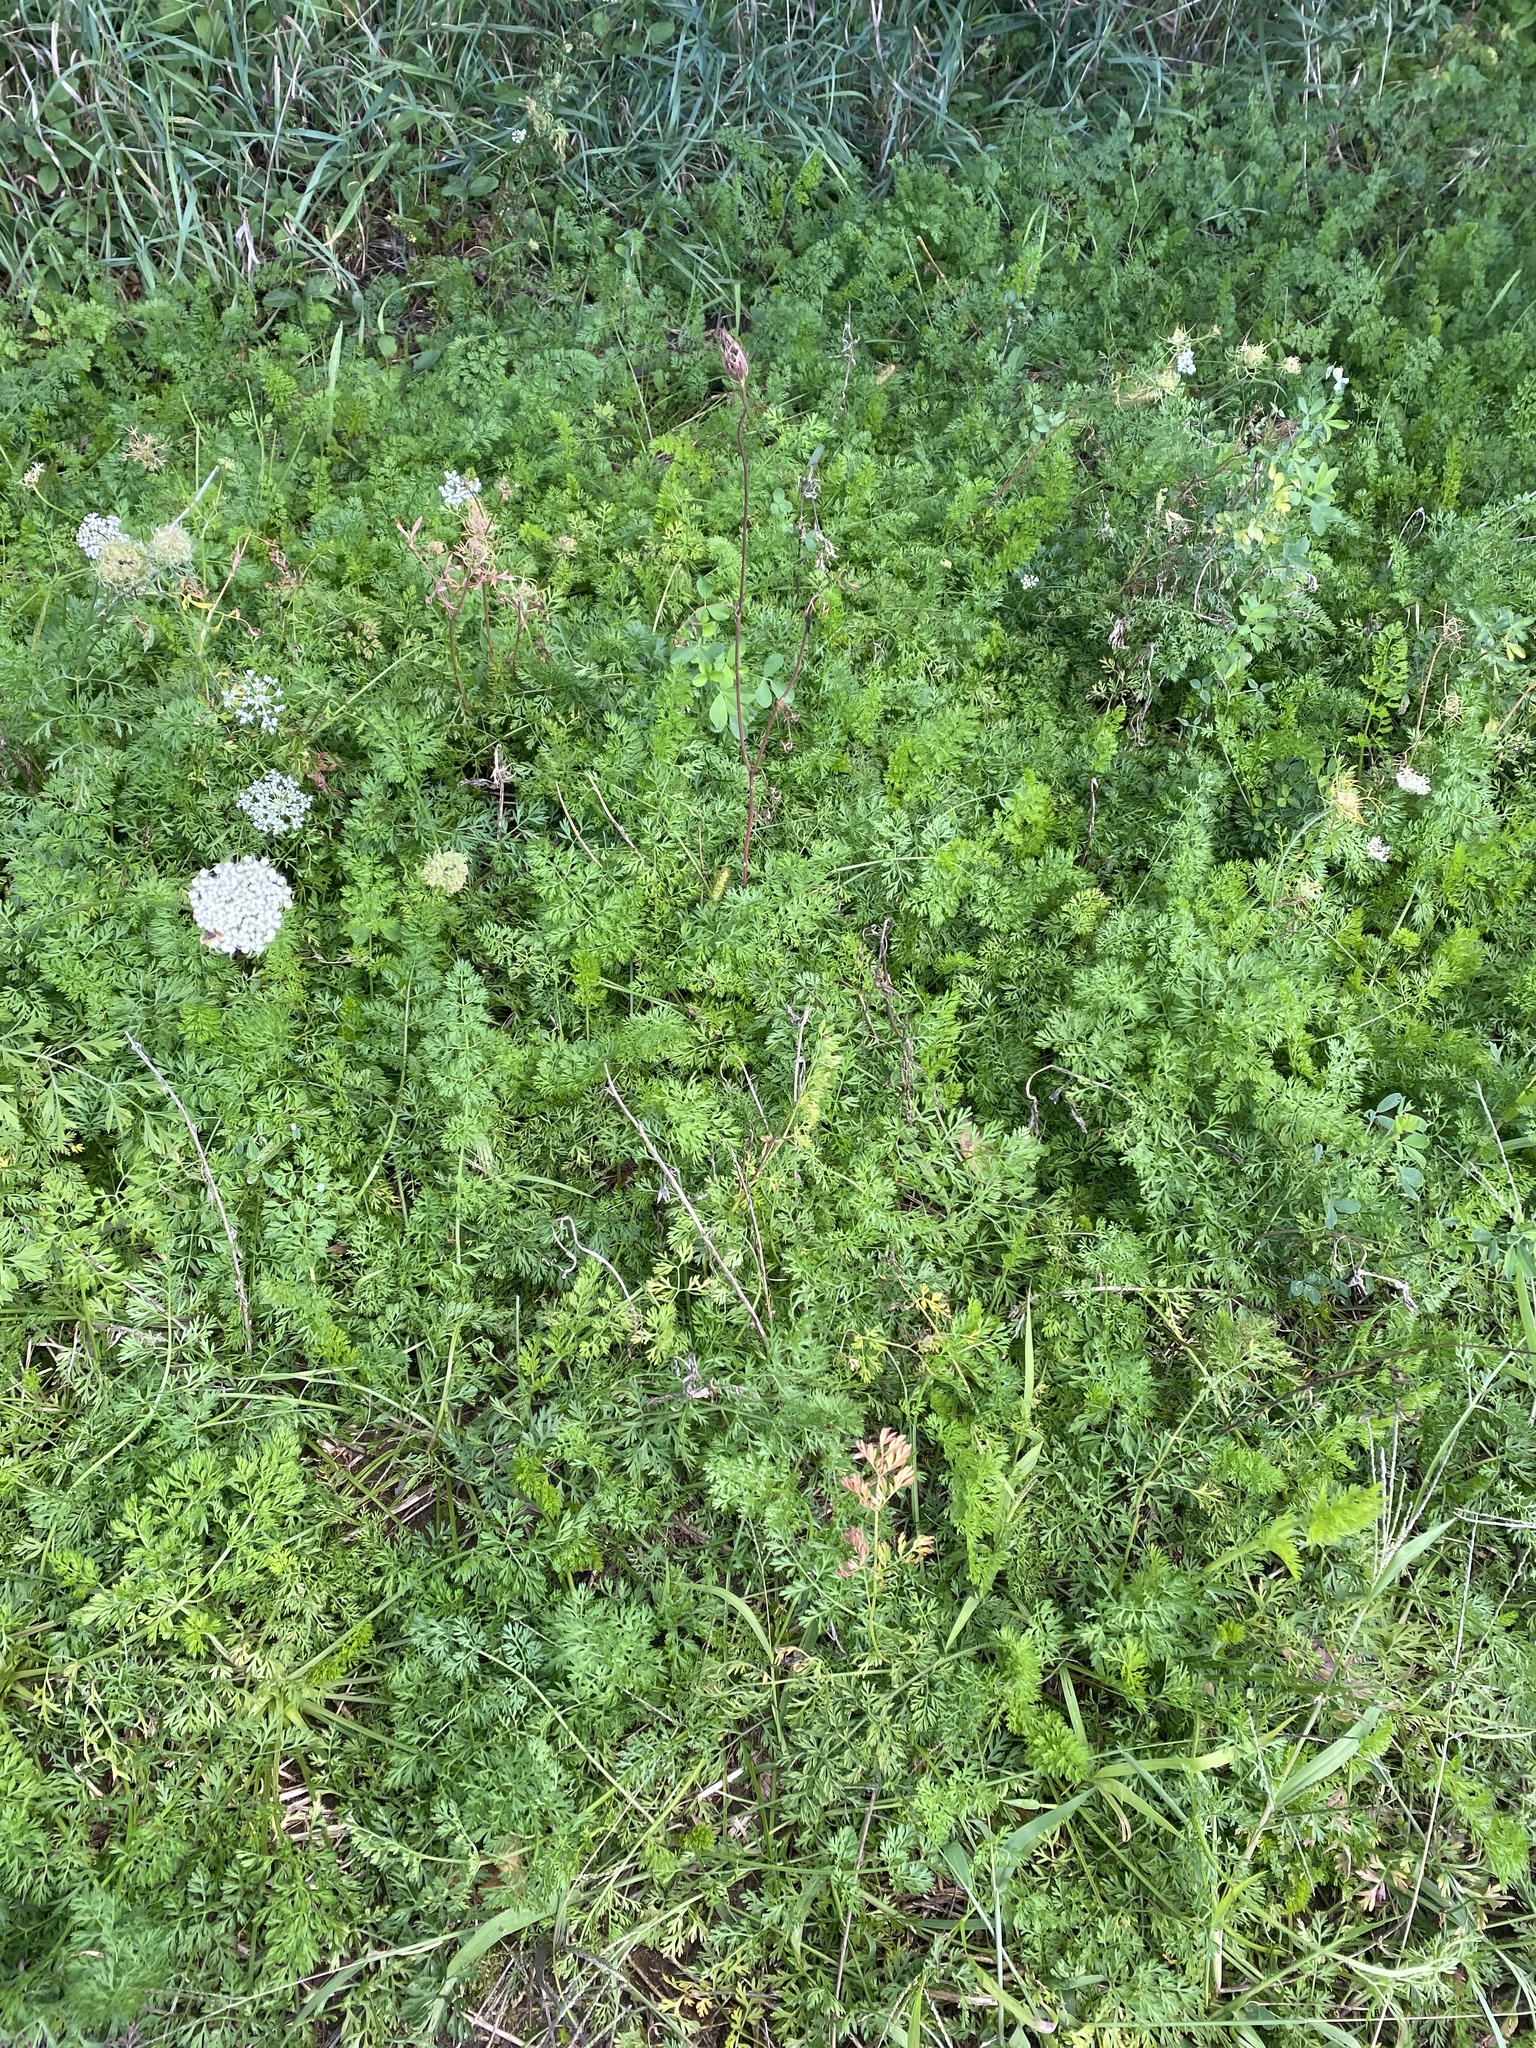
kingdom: Plantae
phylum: Tracheophyta
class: Magnoliopsida
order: Apiales
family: Apiaceae
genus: Daucus
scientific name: Daucus carota
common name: Wild carrot
